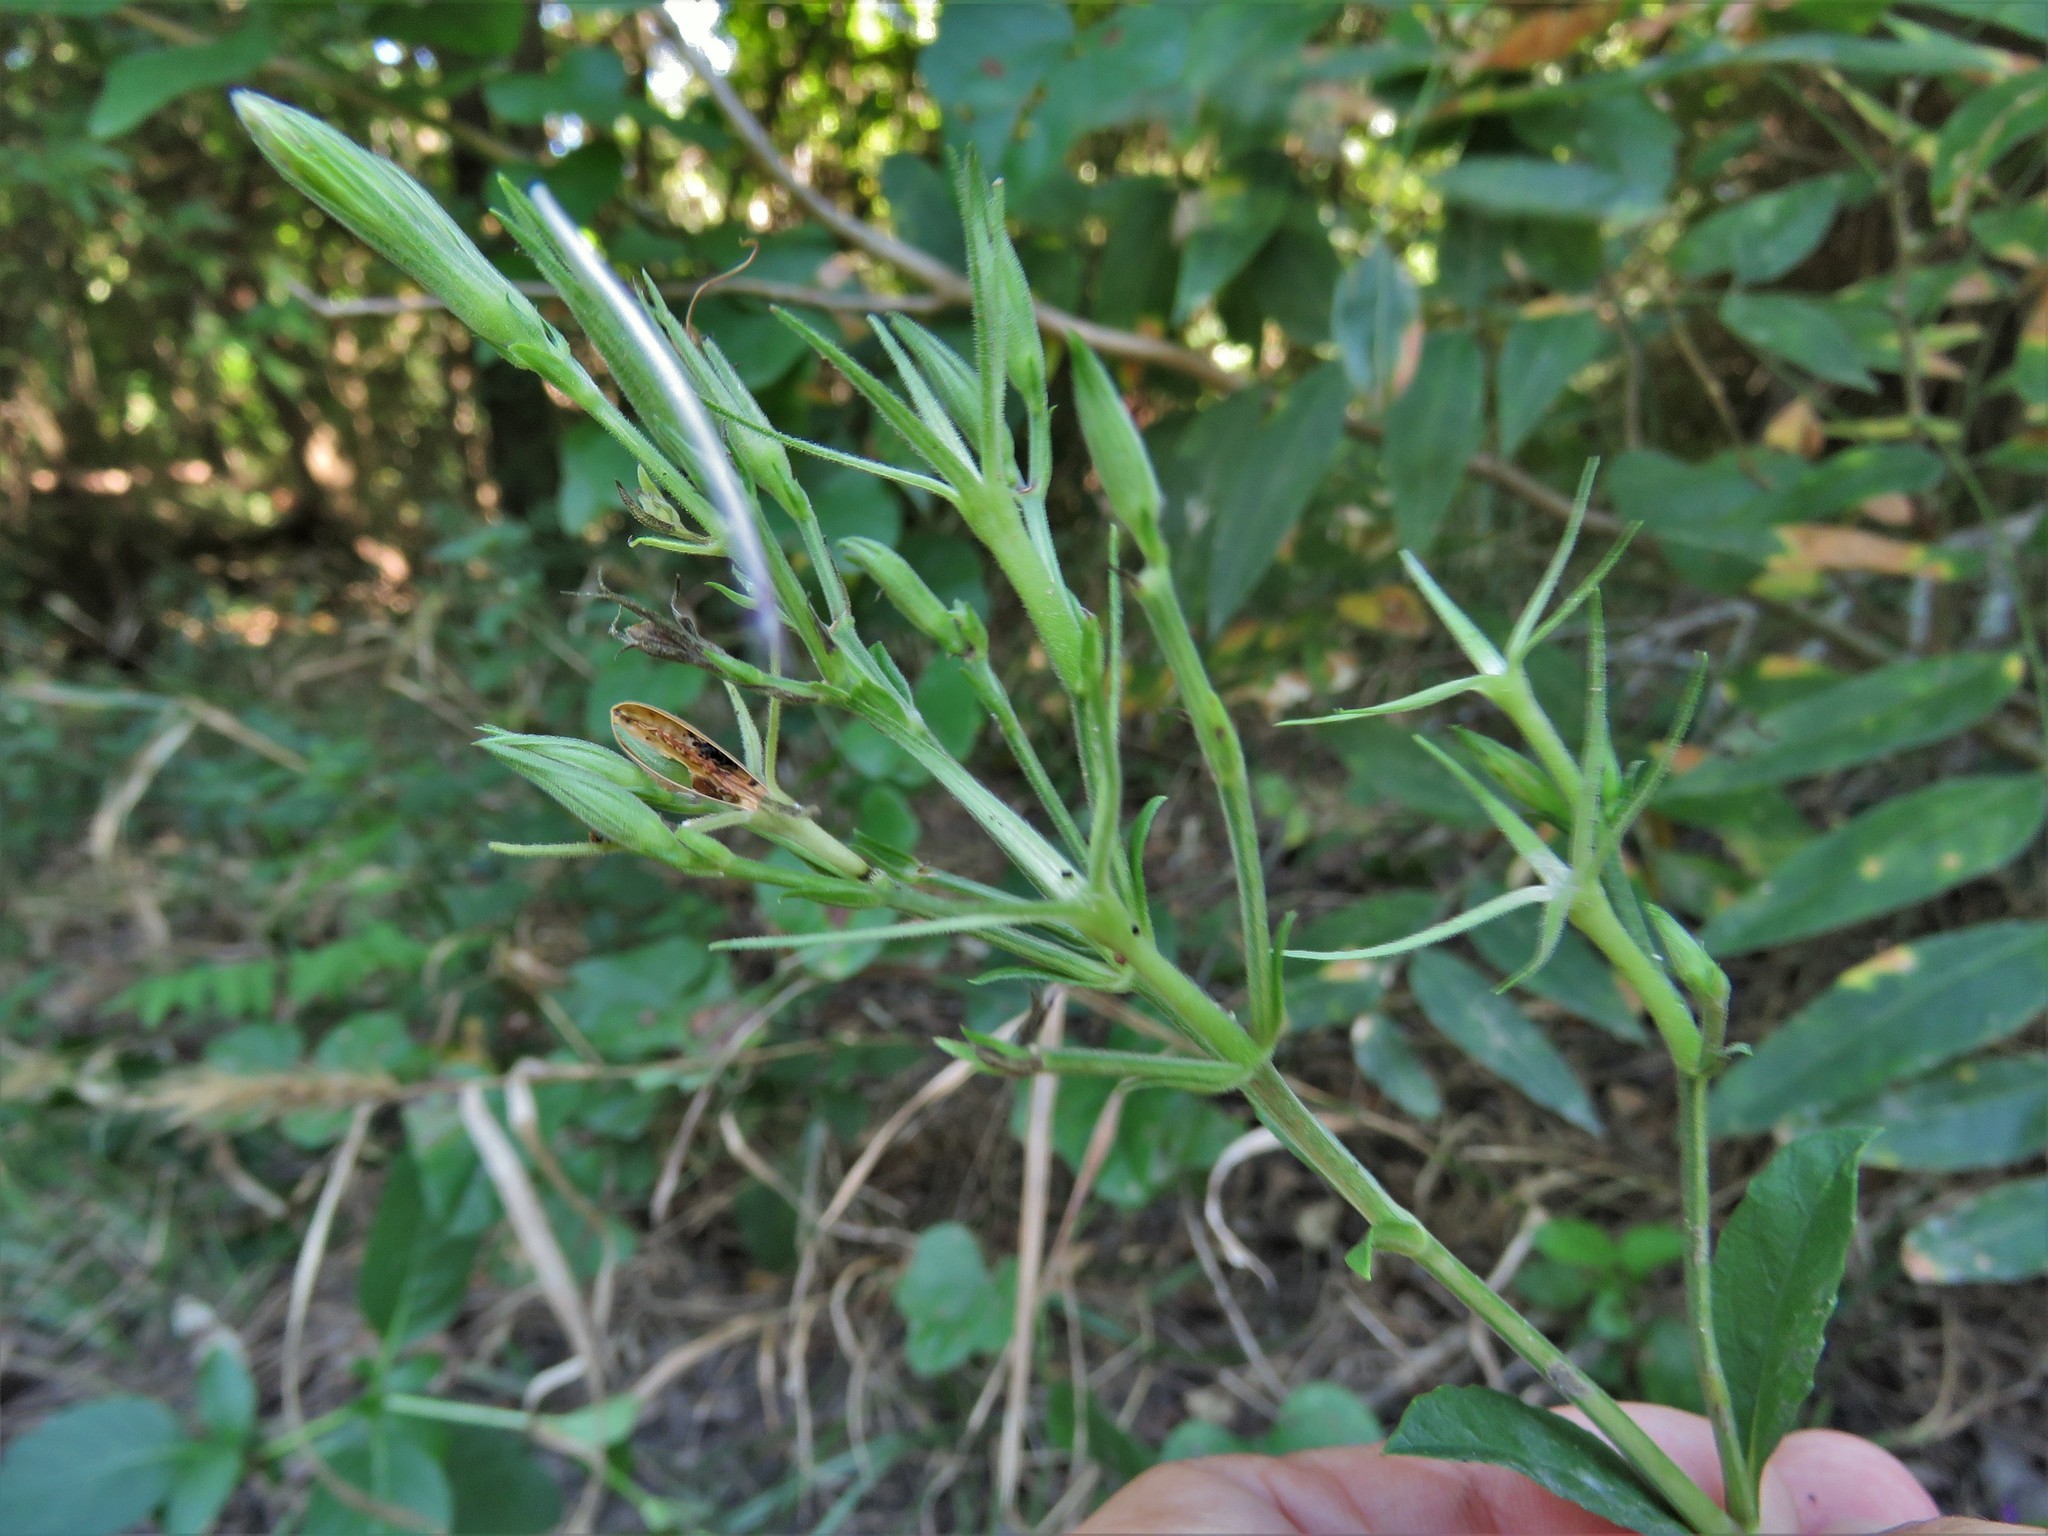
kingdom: Plantae
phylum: Tracheophyta
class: Magnoliopsida
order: Lamiales
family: Acanthaceae
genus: Ruellia
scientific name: Ruellia ciliatiflora
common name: Hairyflower wild petunia
